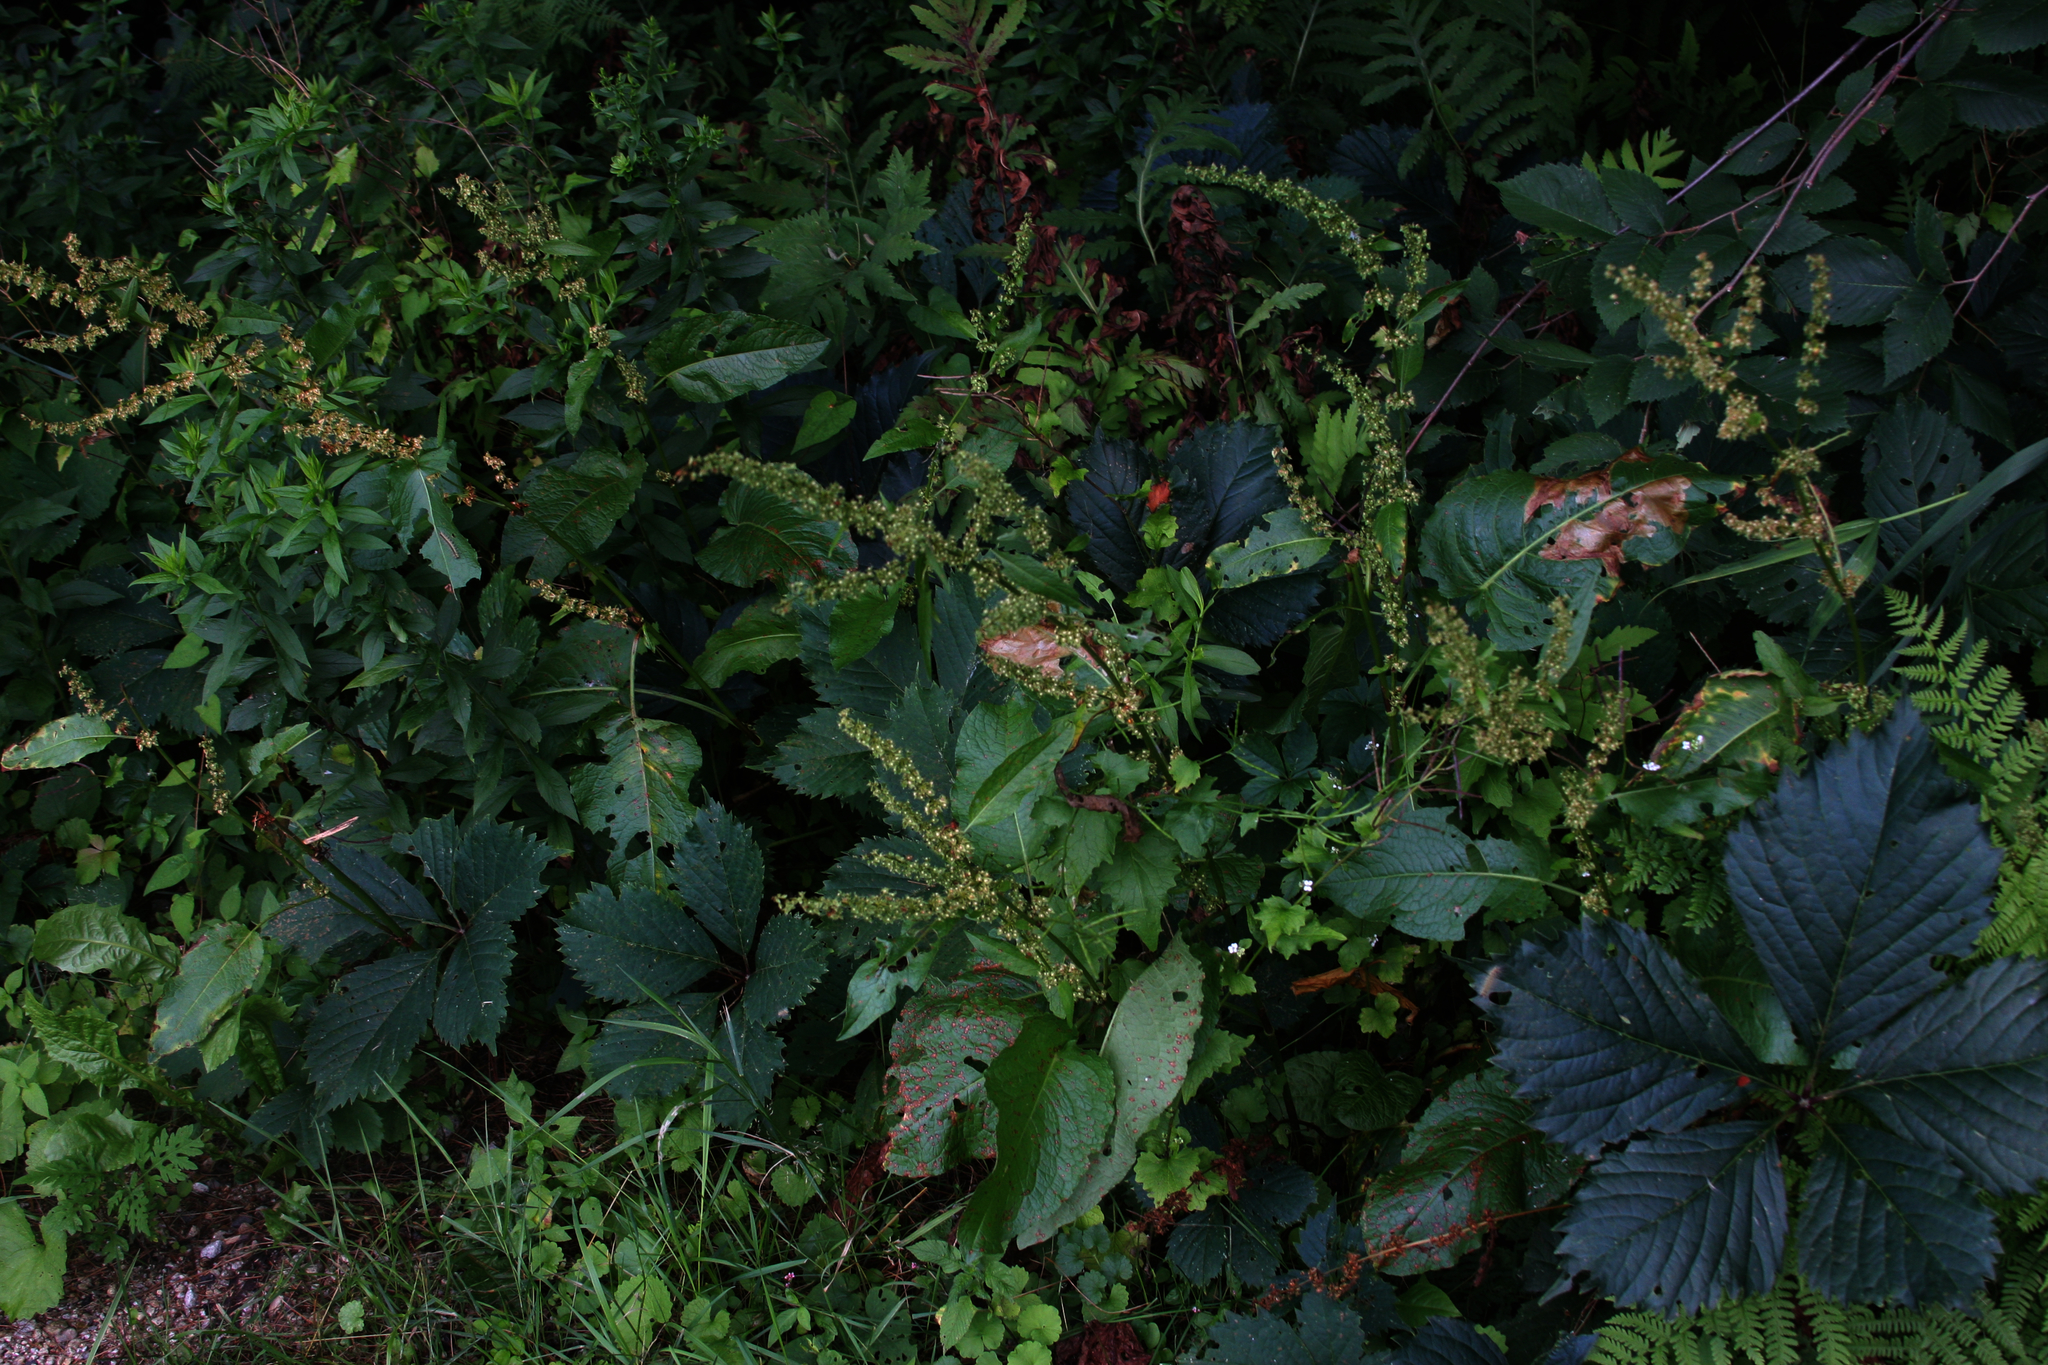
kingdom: Plantae
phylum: Tracheophyta
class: Magnoliopsida
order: Vitales
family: Vitaceae
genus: Parthenocissus
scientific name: Parthenocissus inserta
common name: False virginia-creeper
